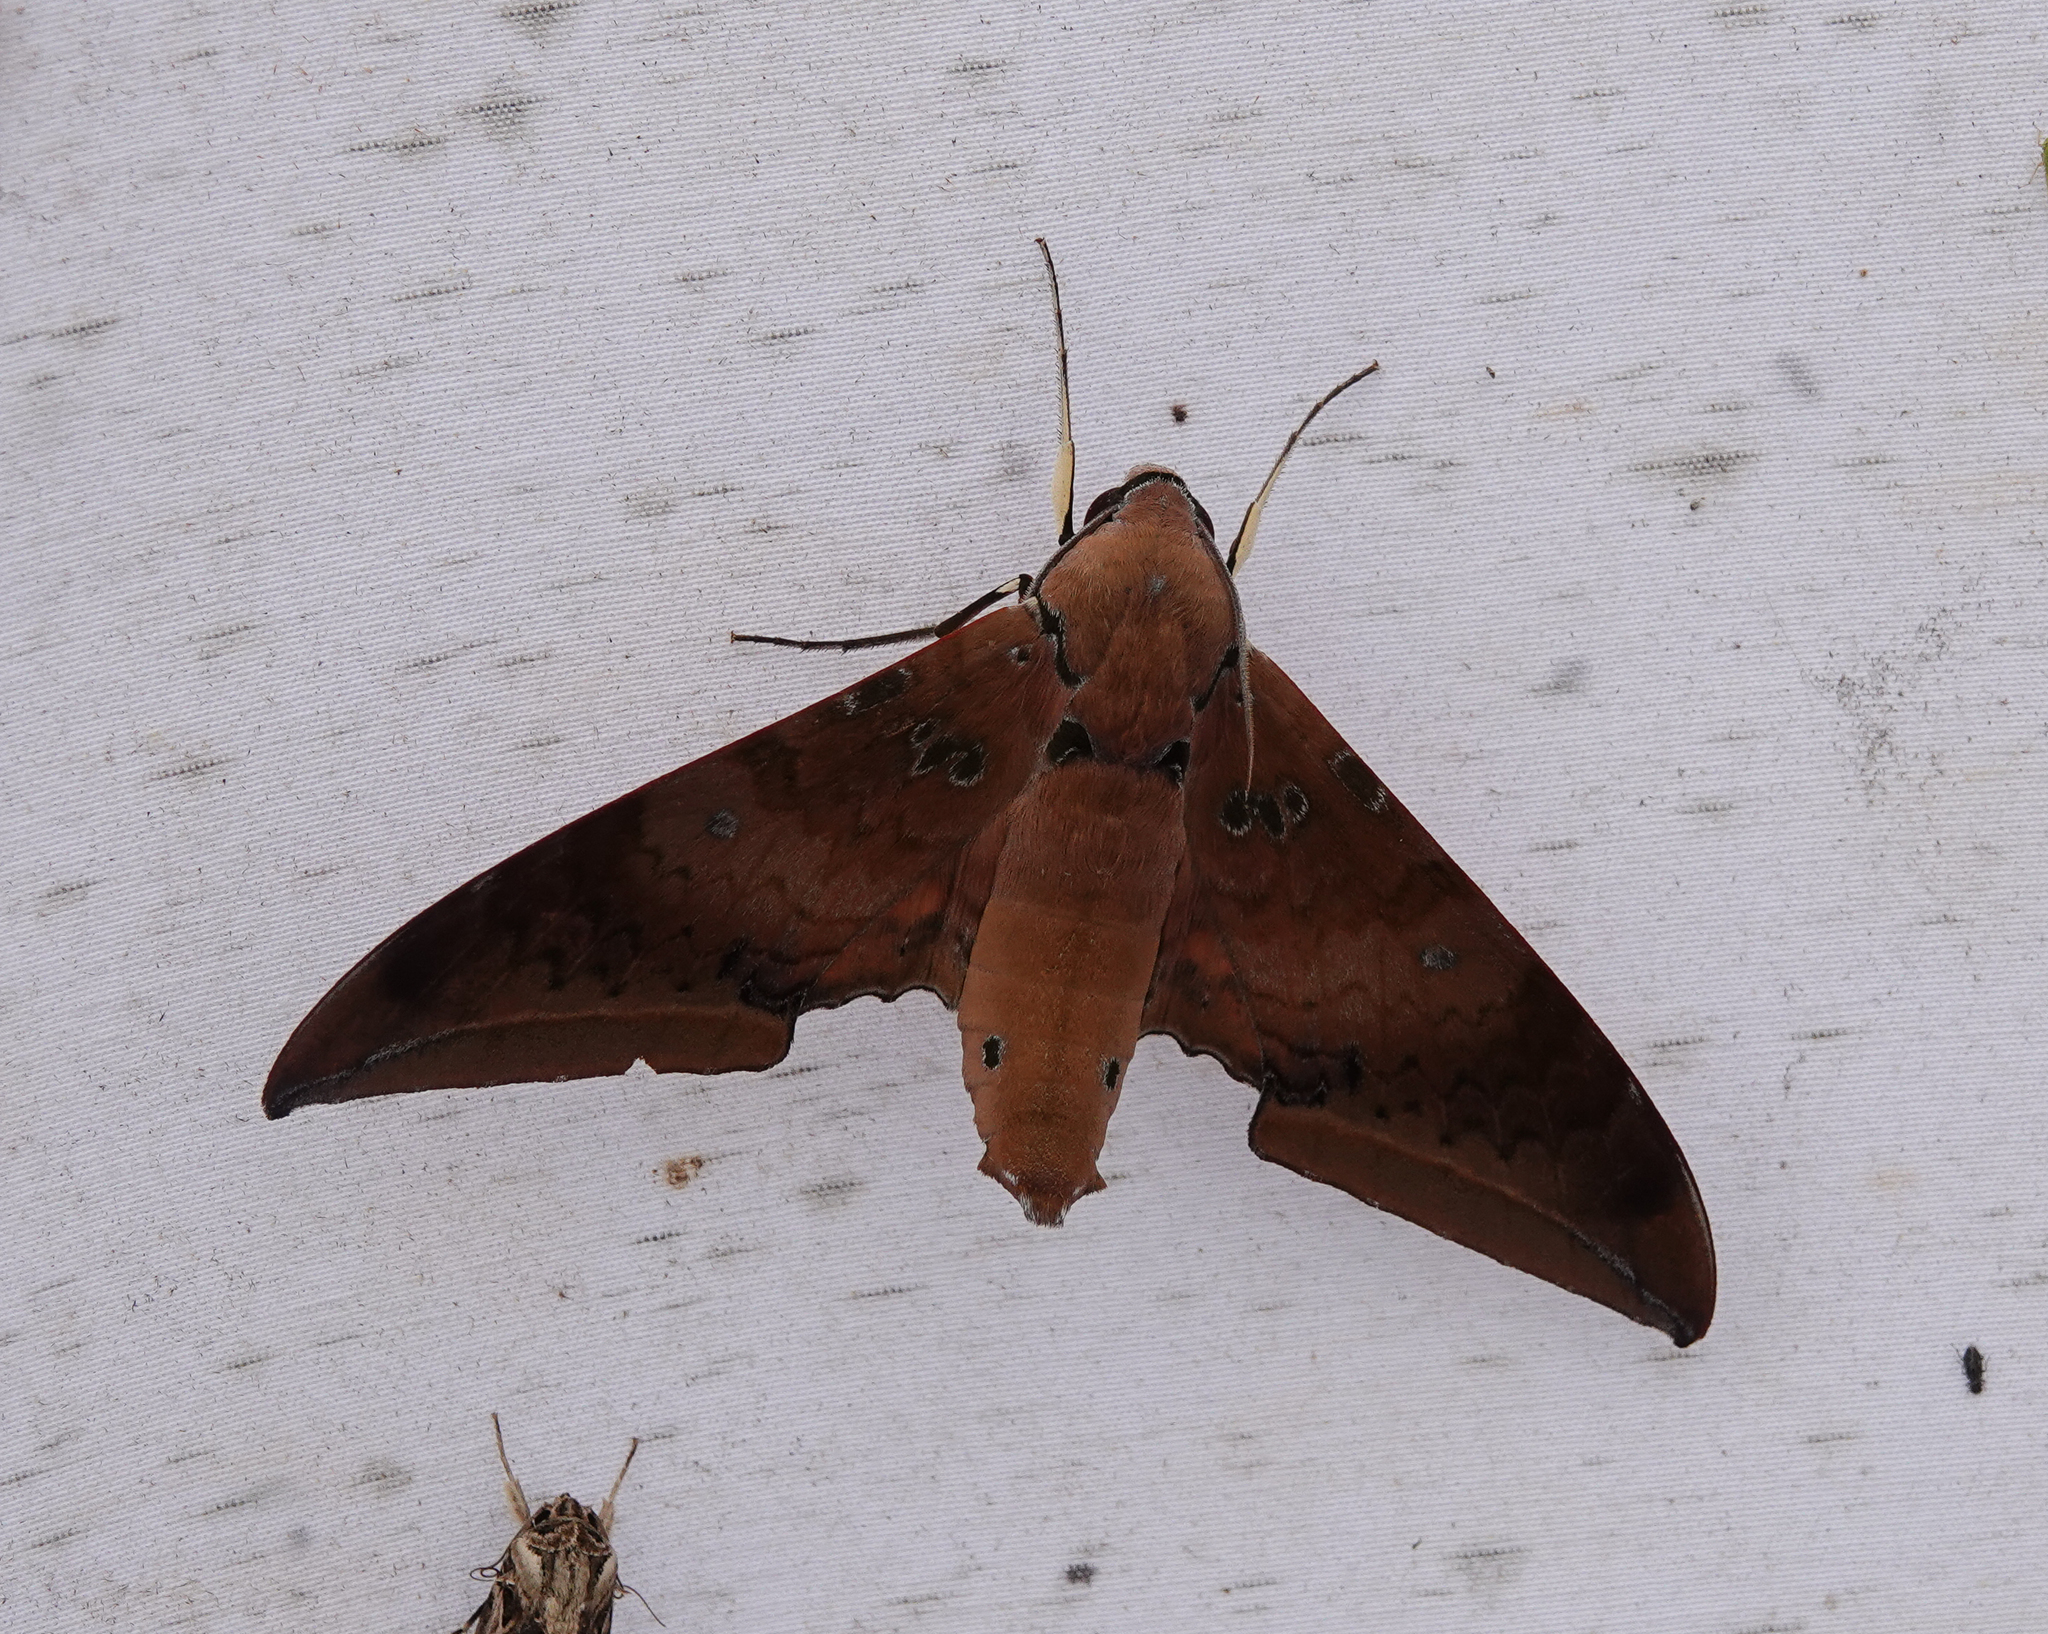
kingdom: Animalia
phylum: Arthropoda
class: Insecta
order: Lepidoptera
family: Sphingidae
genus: Ambulyx
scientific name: Ambulyx moorei
